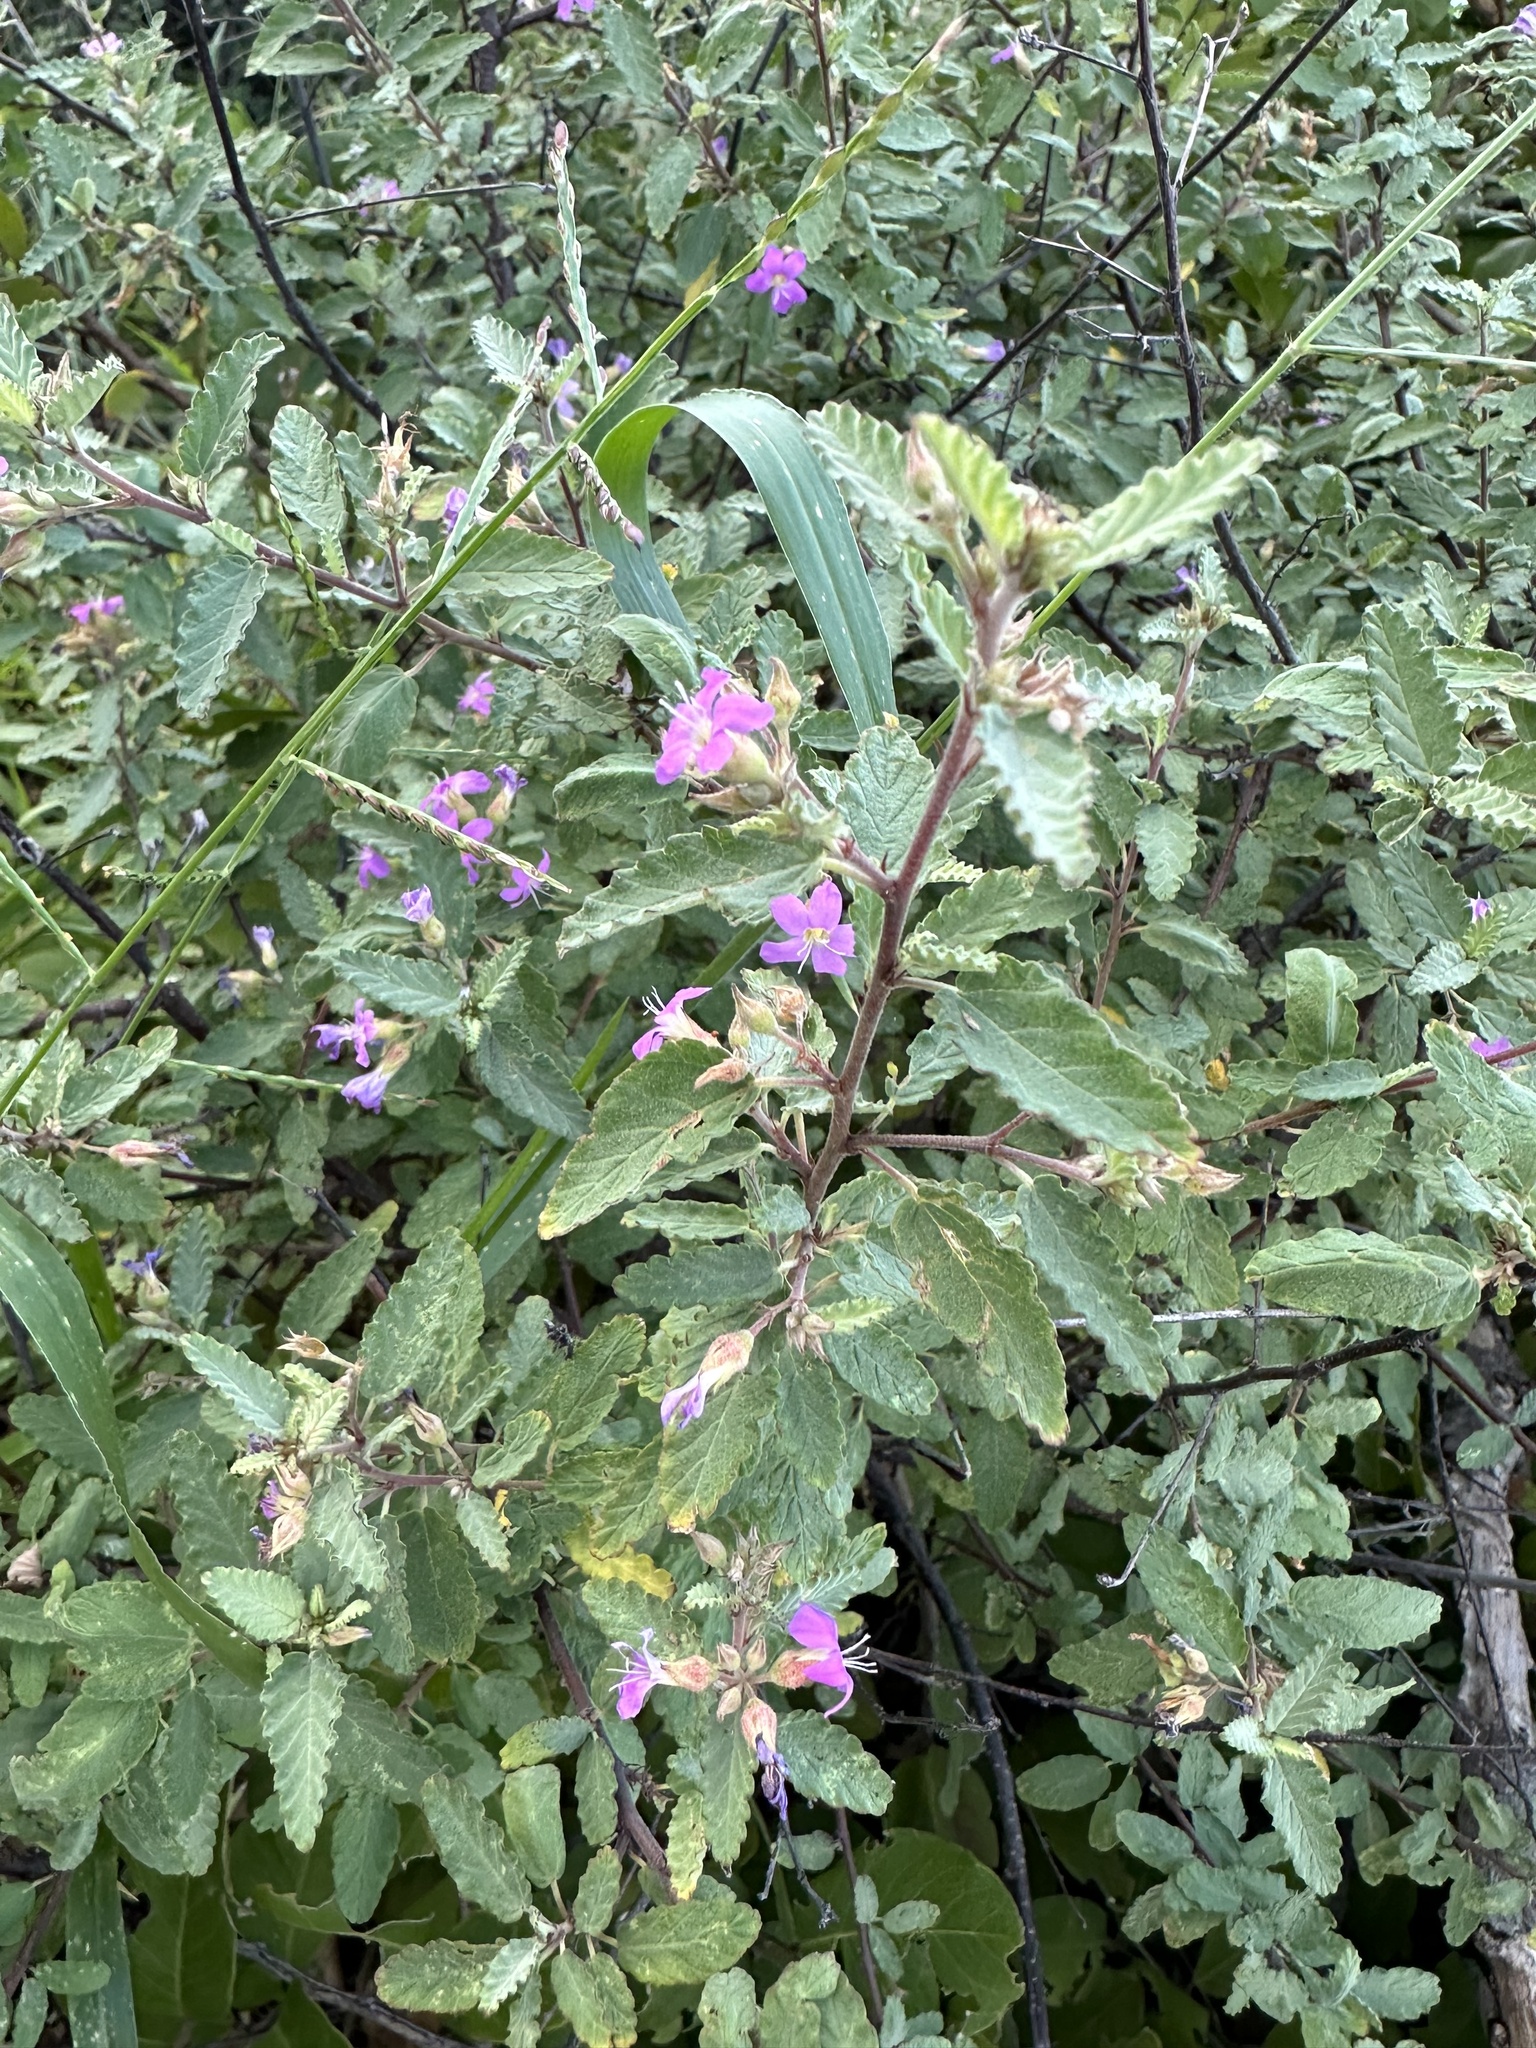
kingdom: Plantae
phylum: Tracheophyta
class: Magnoliopsida
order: Malvales
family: Malvaceae
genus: Melochia
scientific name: Melochia tomentosa
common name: Black torch
